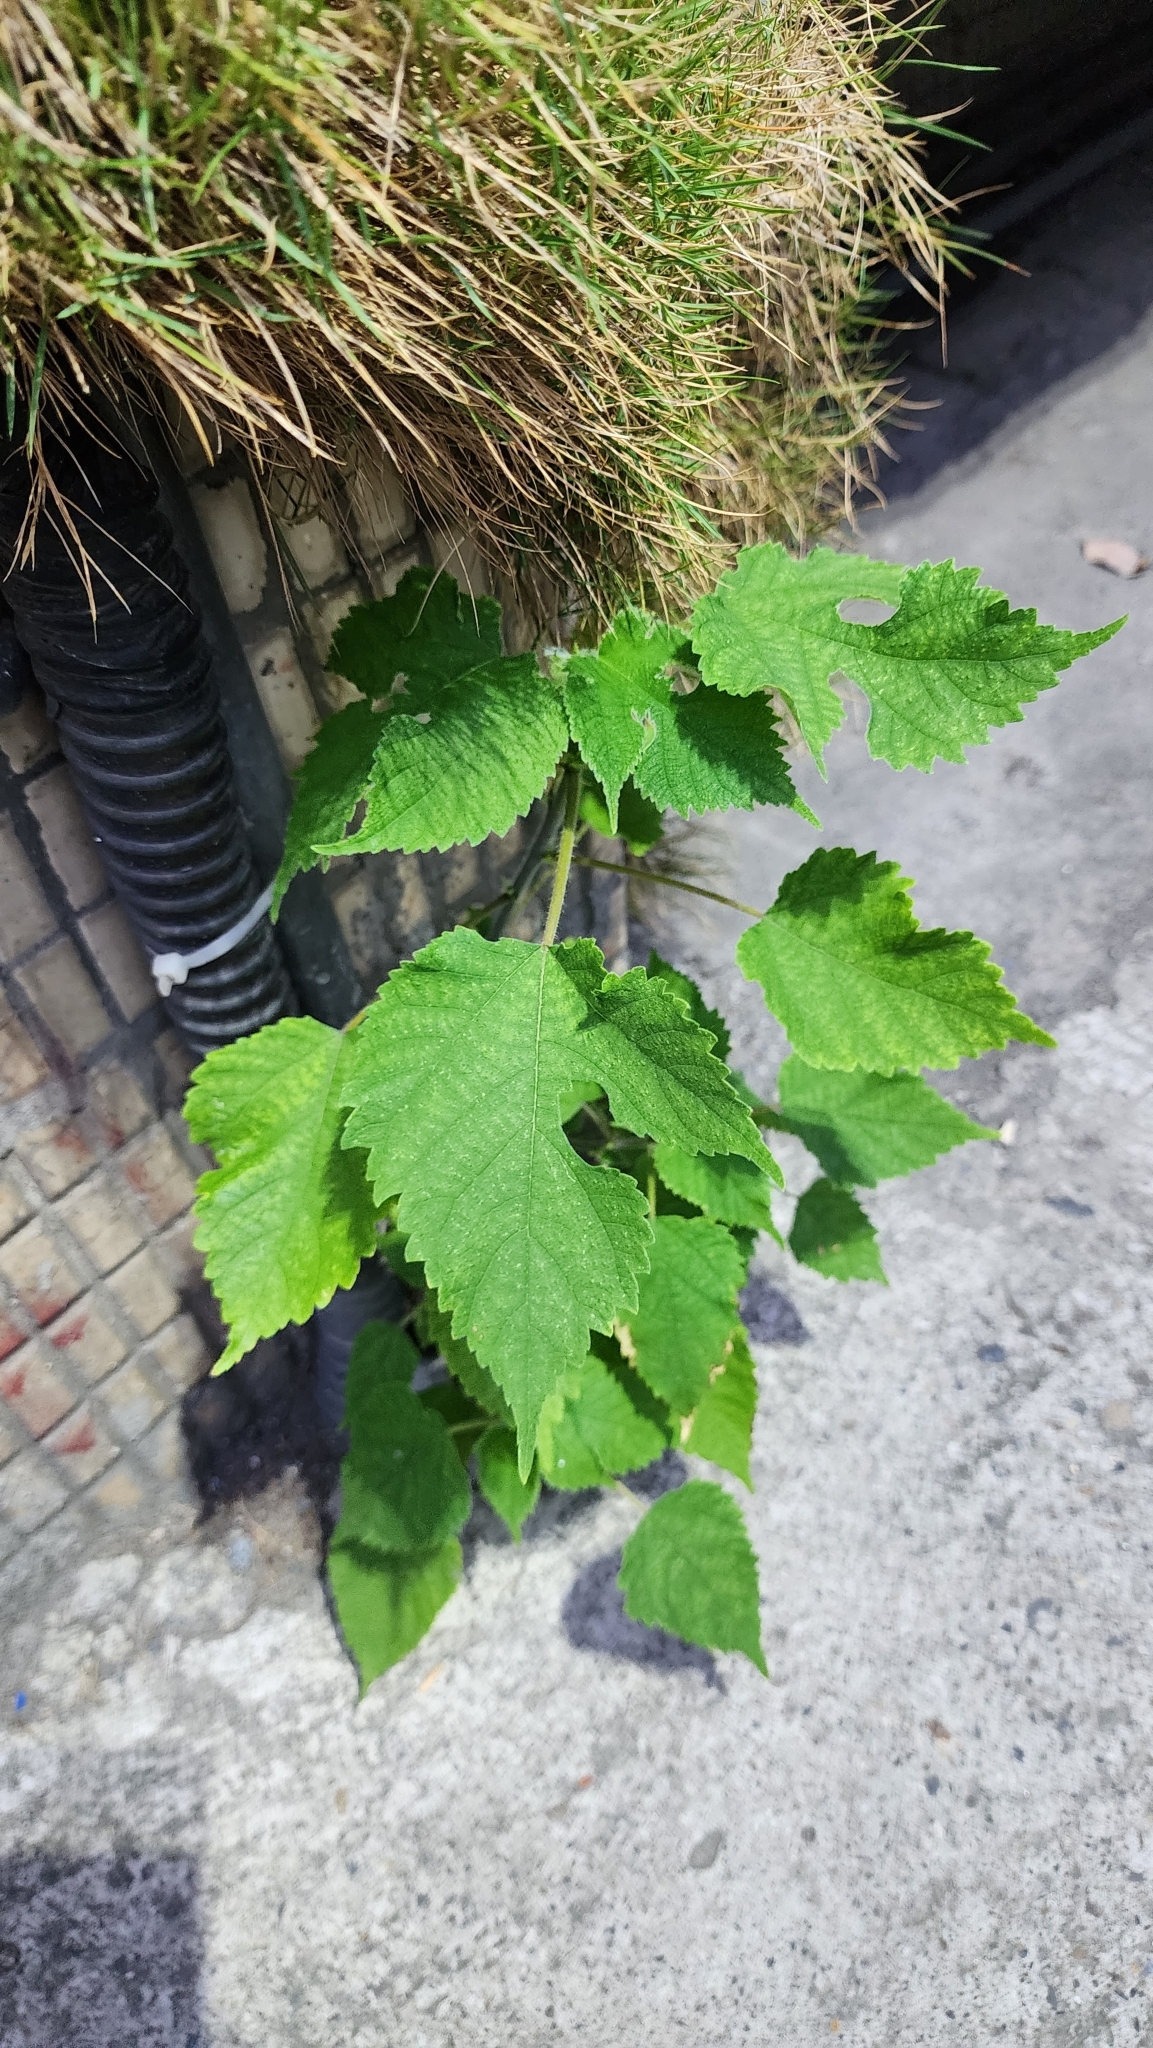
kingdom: Plantae
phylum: Tracheophyta
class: Magnoliopsida
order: Rosales
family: Moraceae
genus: Broussonetia
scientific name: Broussonetia papyrifera
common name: Paper mulberry
